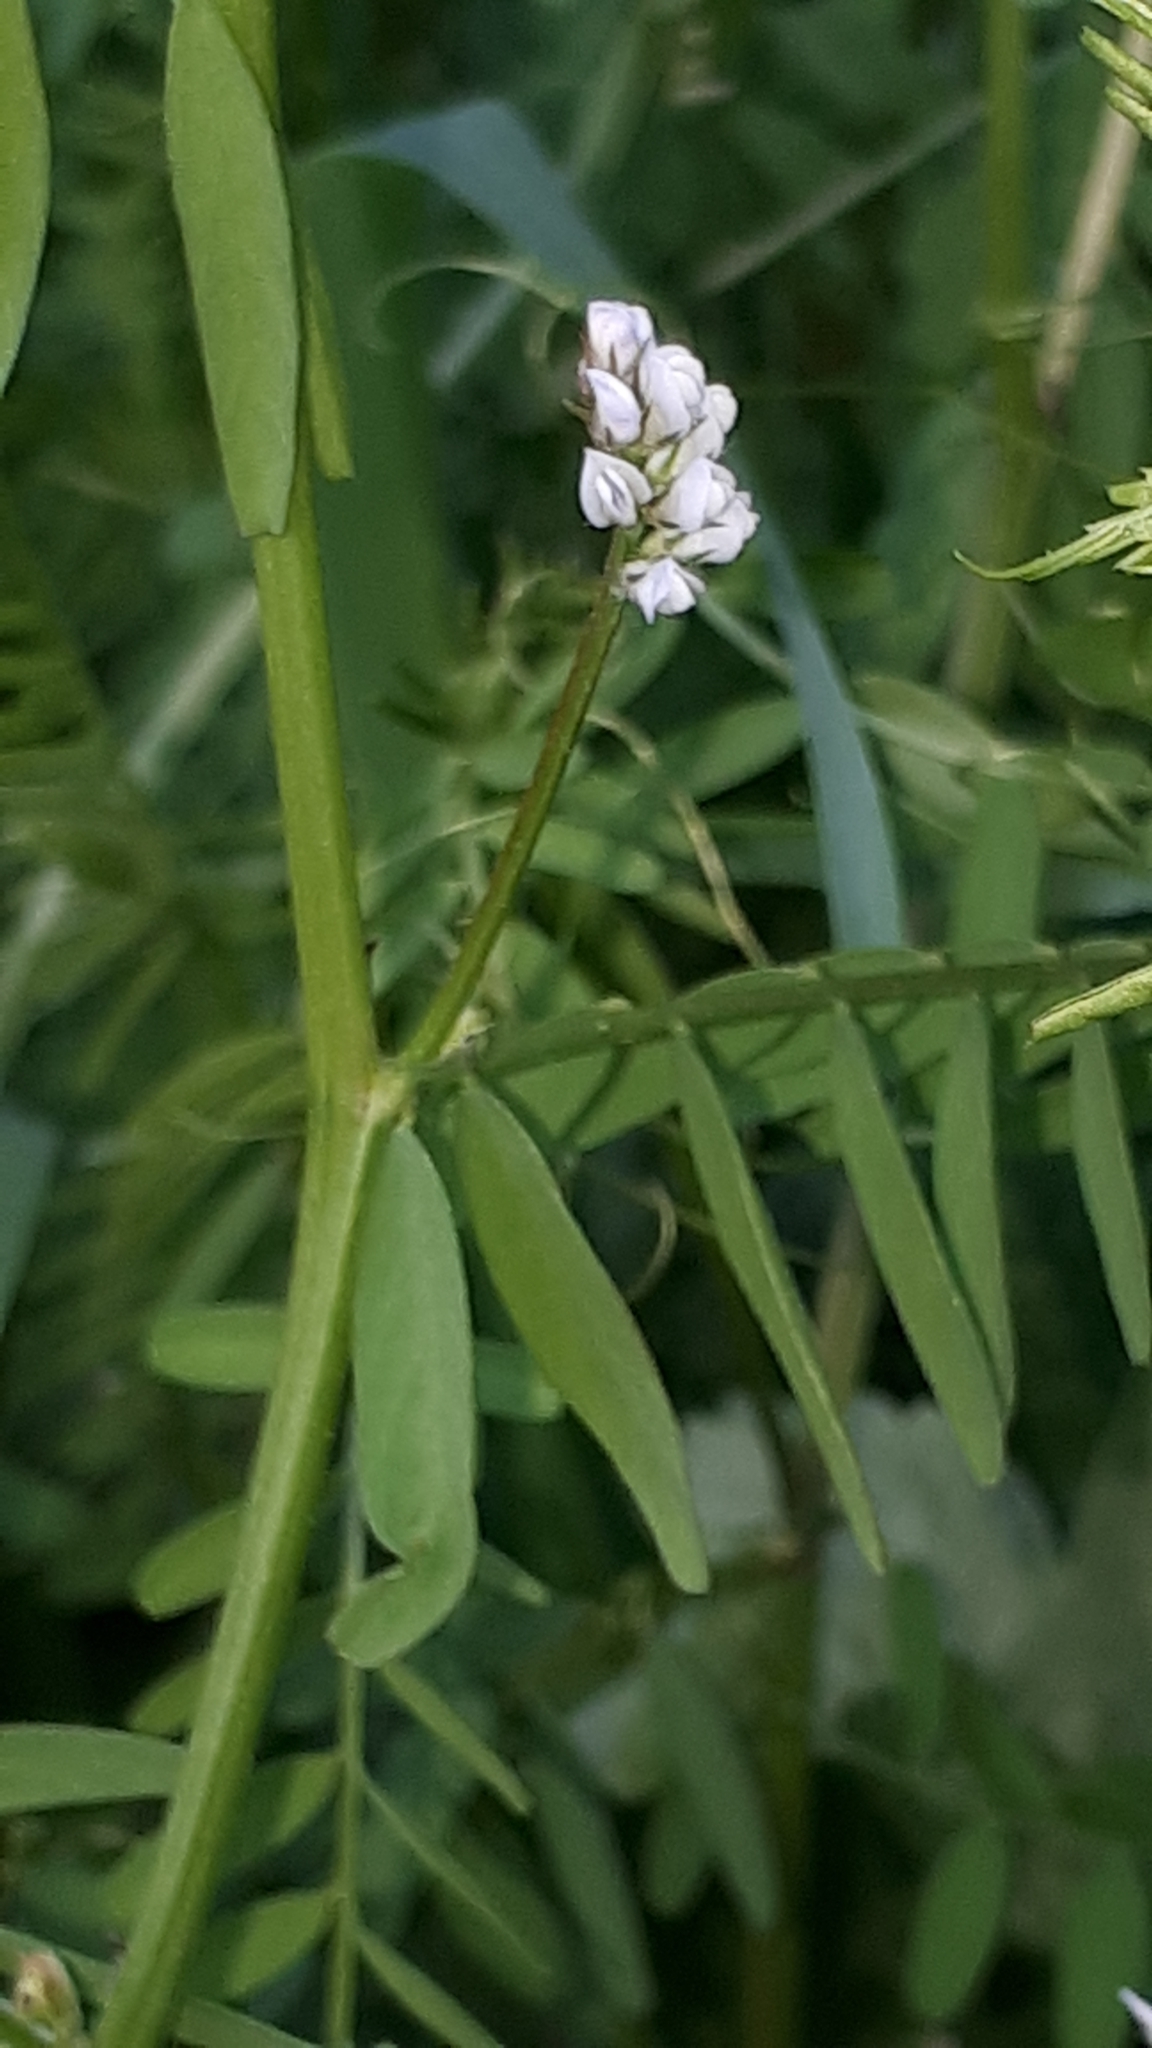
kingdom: Plantae
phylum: Tracheophyta
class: Magnoliopsida
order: Fabales
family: Fabaceae
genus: Vicia
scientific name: Vicia hirsuta
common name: Tiny vetch
